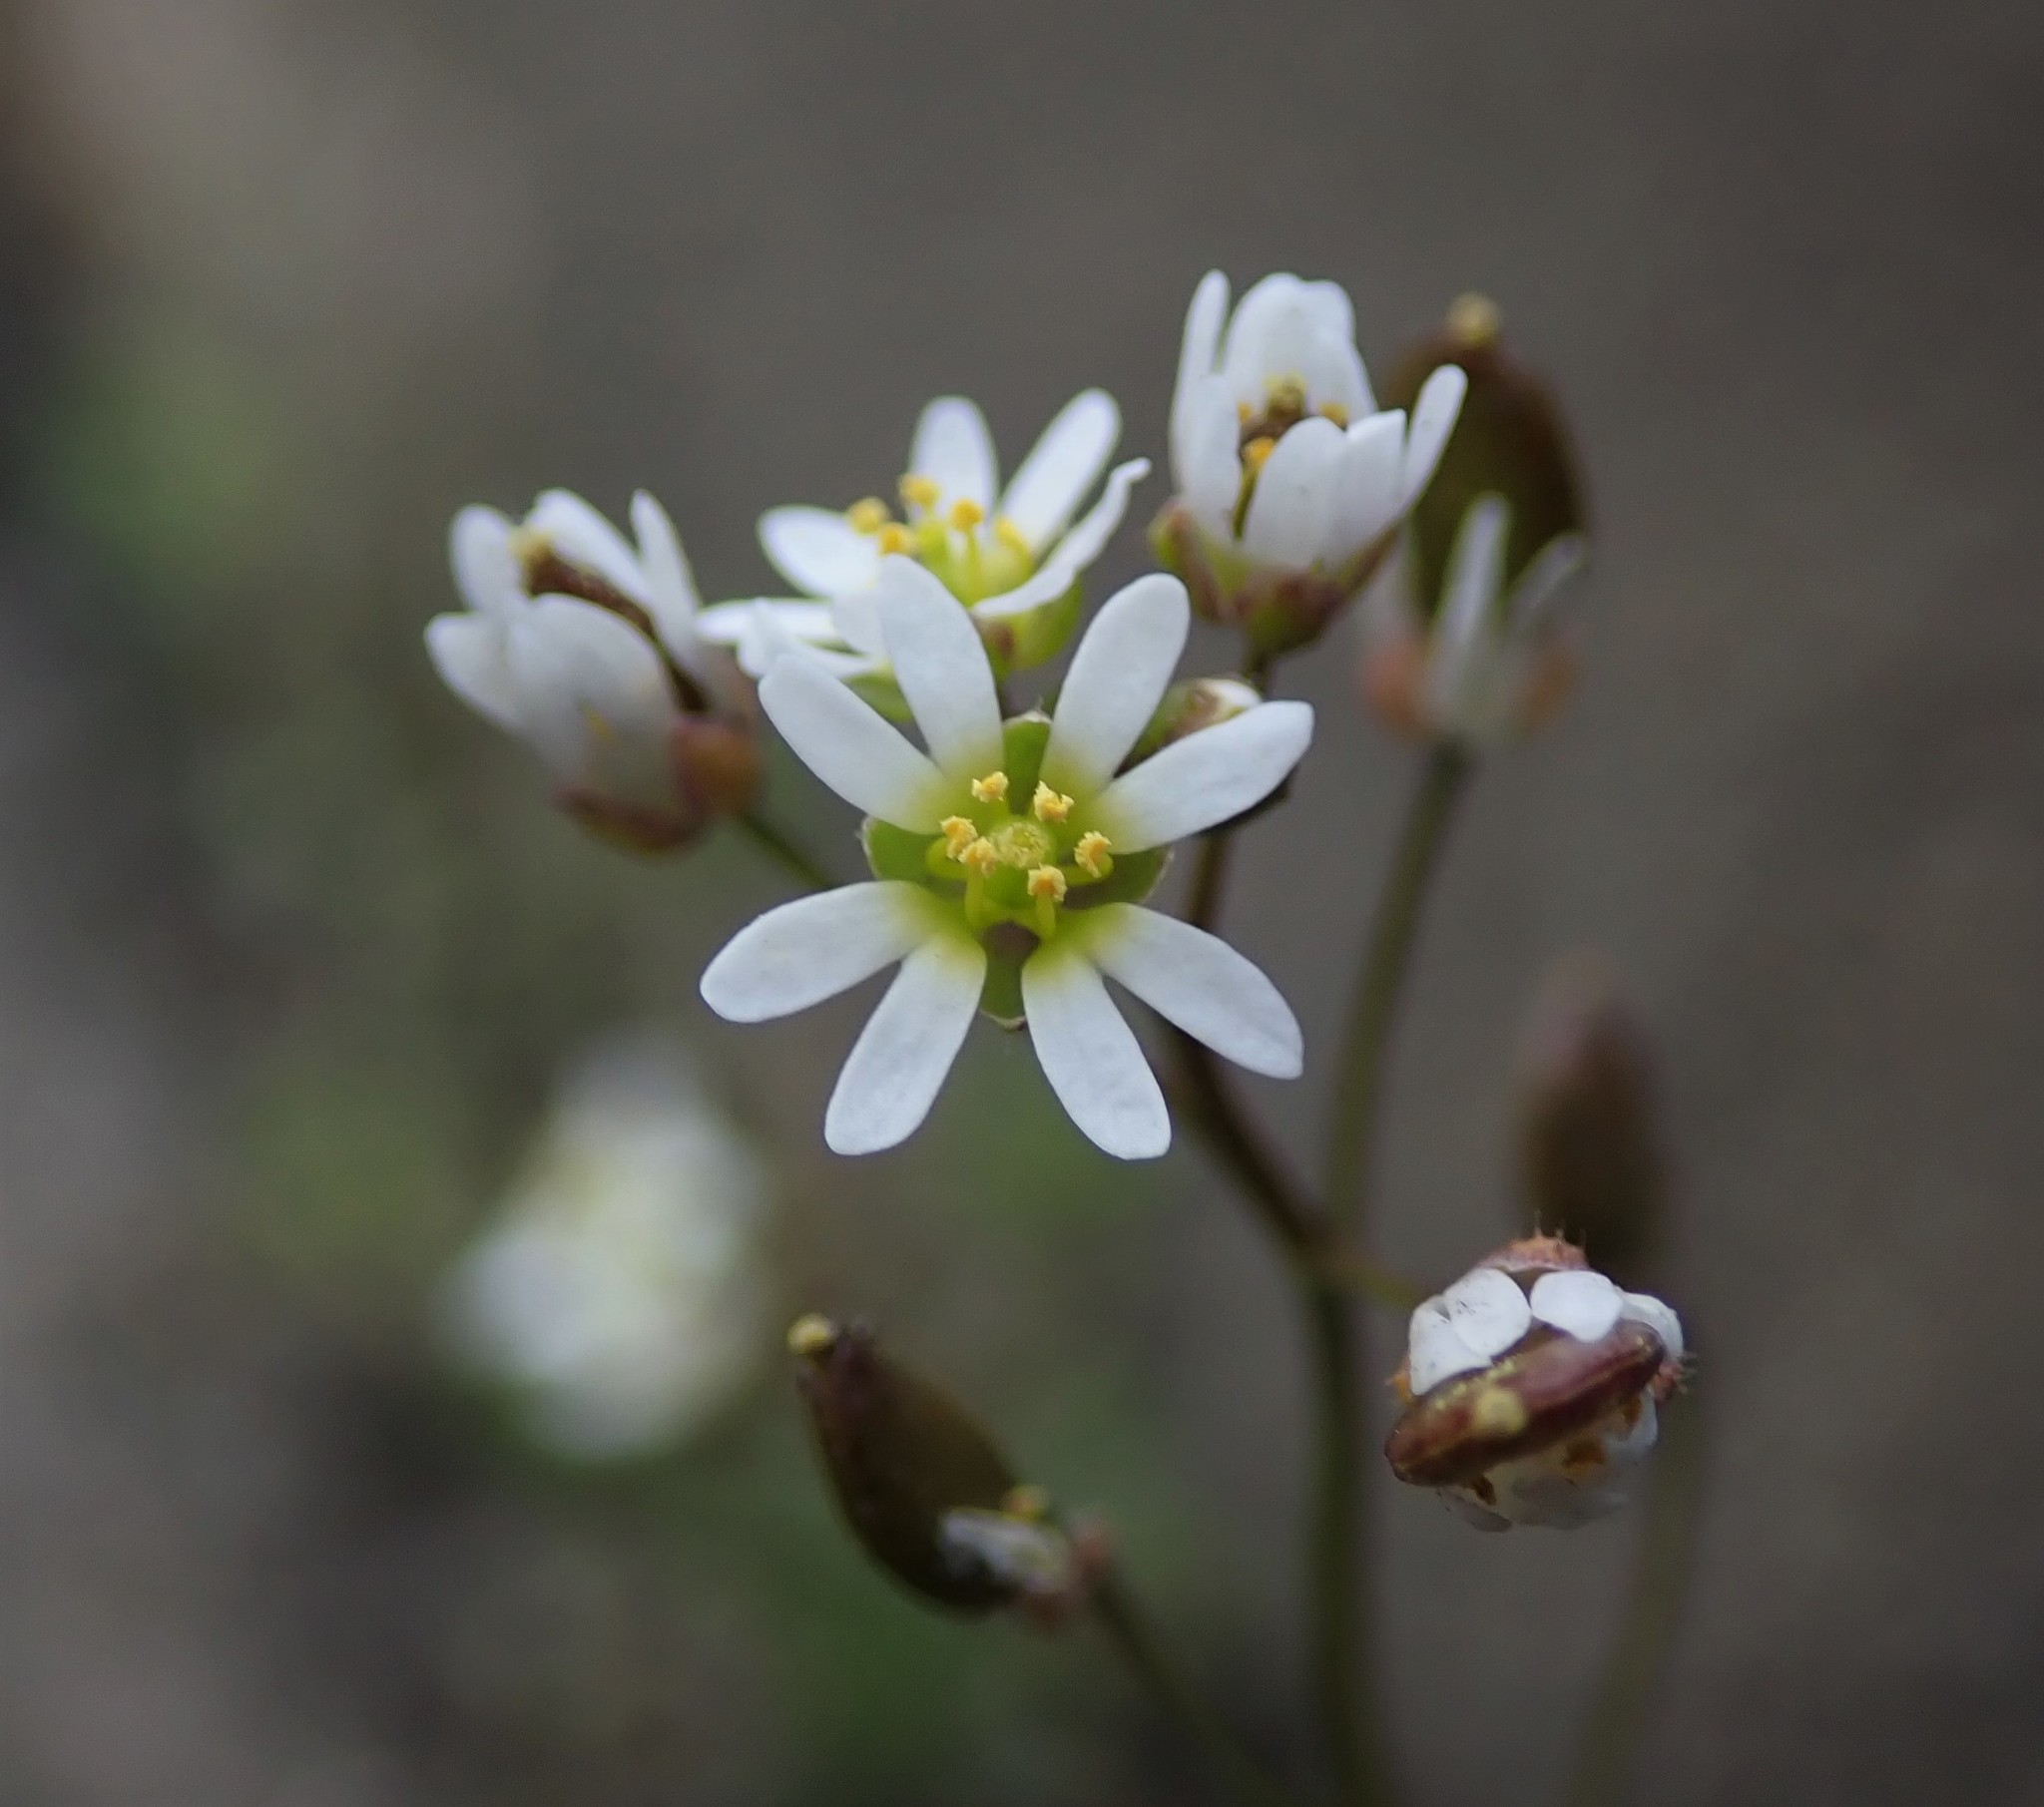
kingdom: Plantae
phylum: Tracheophyta
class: Magnoliopsida
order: Brassicales
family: Brassicaceae
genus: Draba
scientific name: Draba verna
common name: Spring draba
